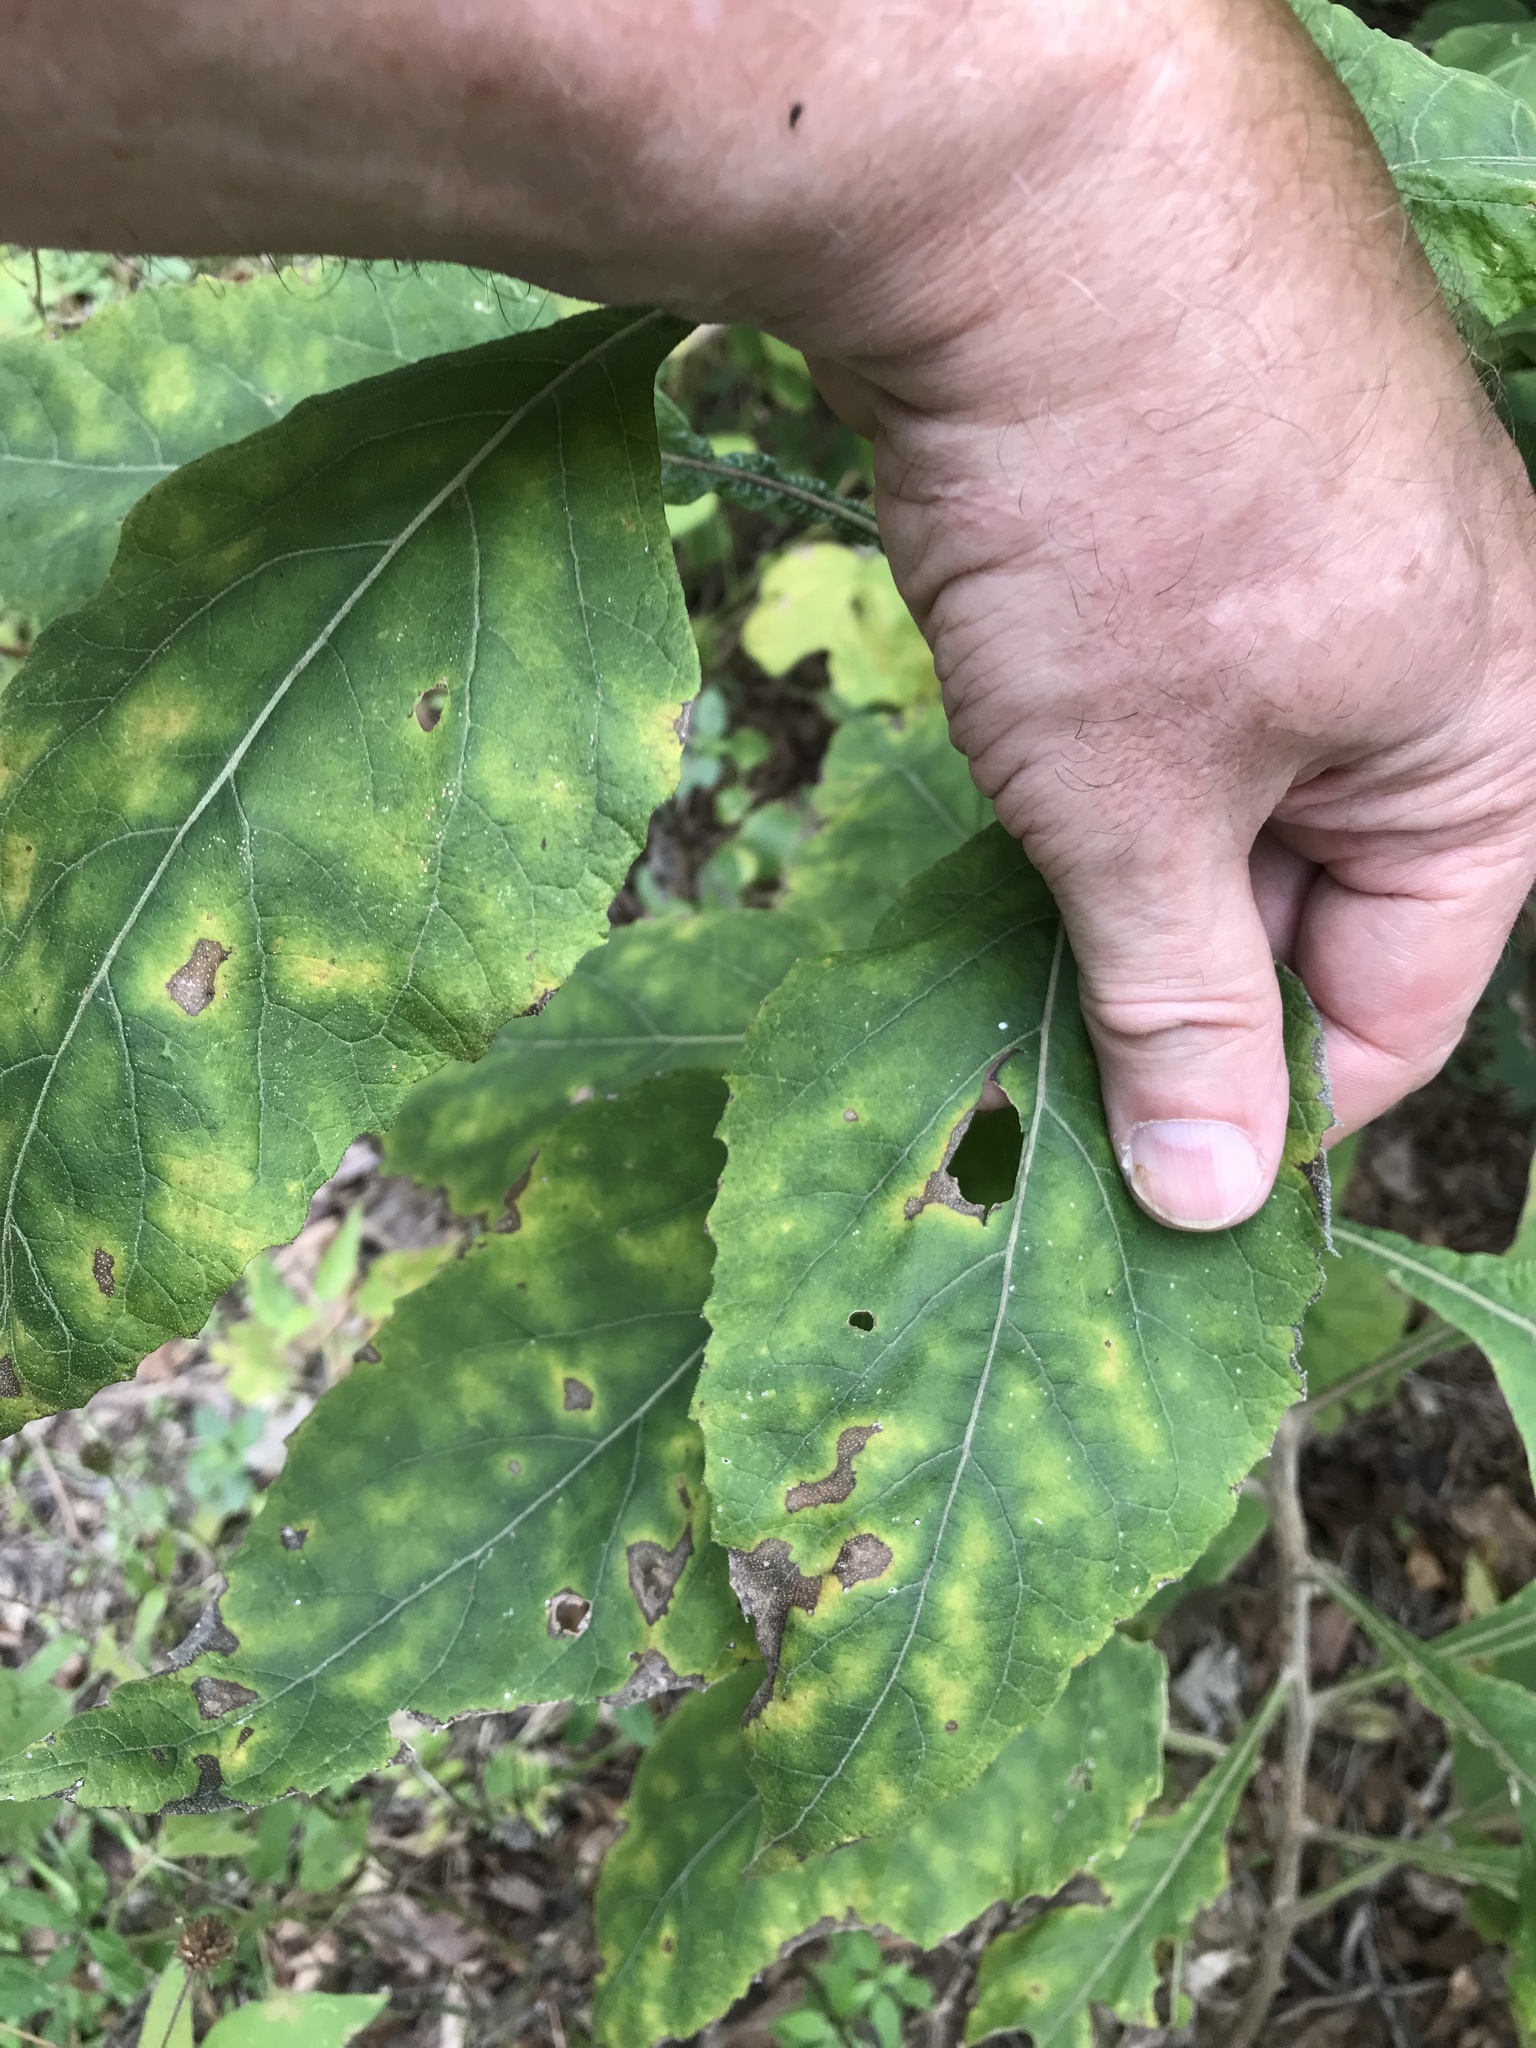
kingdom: Plantae
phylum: Tracheophyta
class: Magnoliopsida
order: Asterales
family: Asteraceae
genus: Verbesina
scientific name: Verbesina virginica
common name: Frostweed
